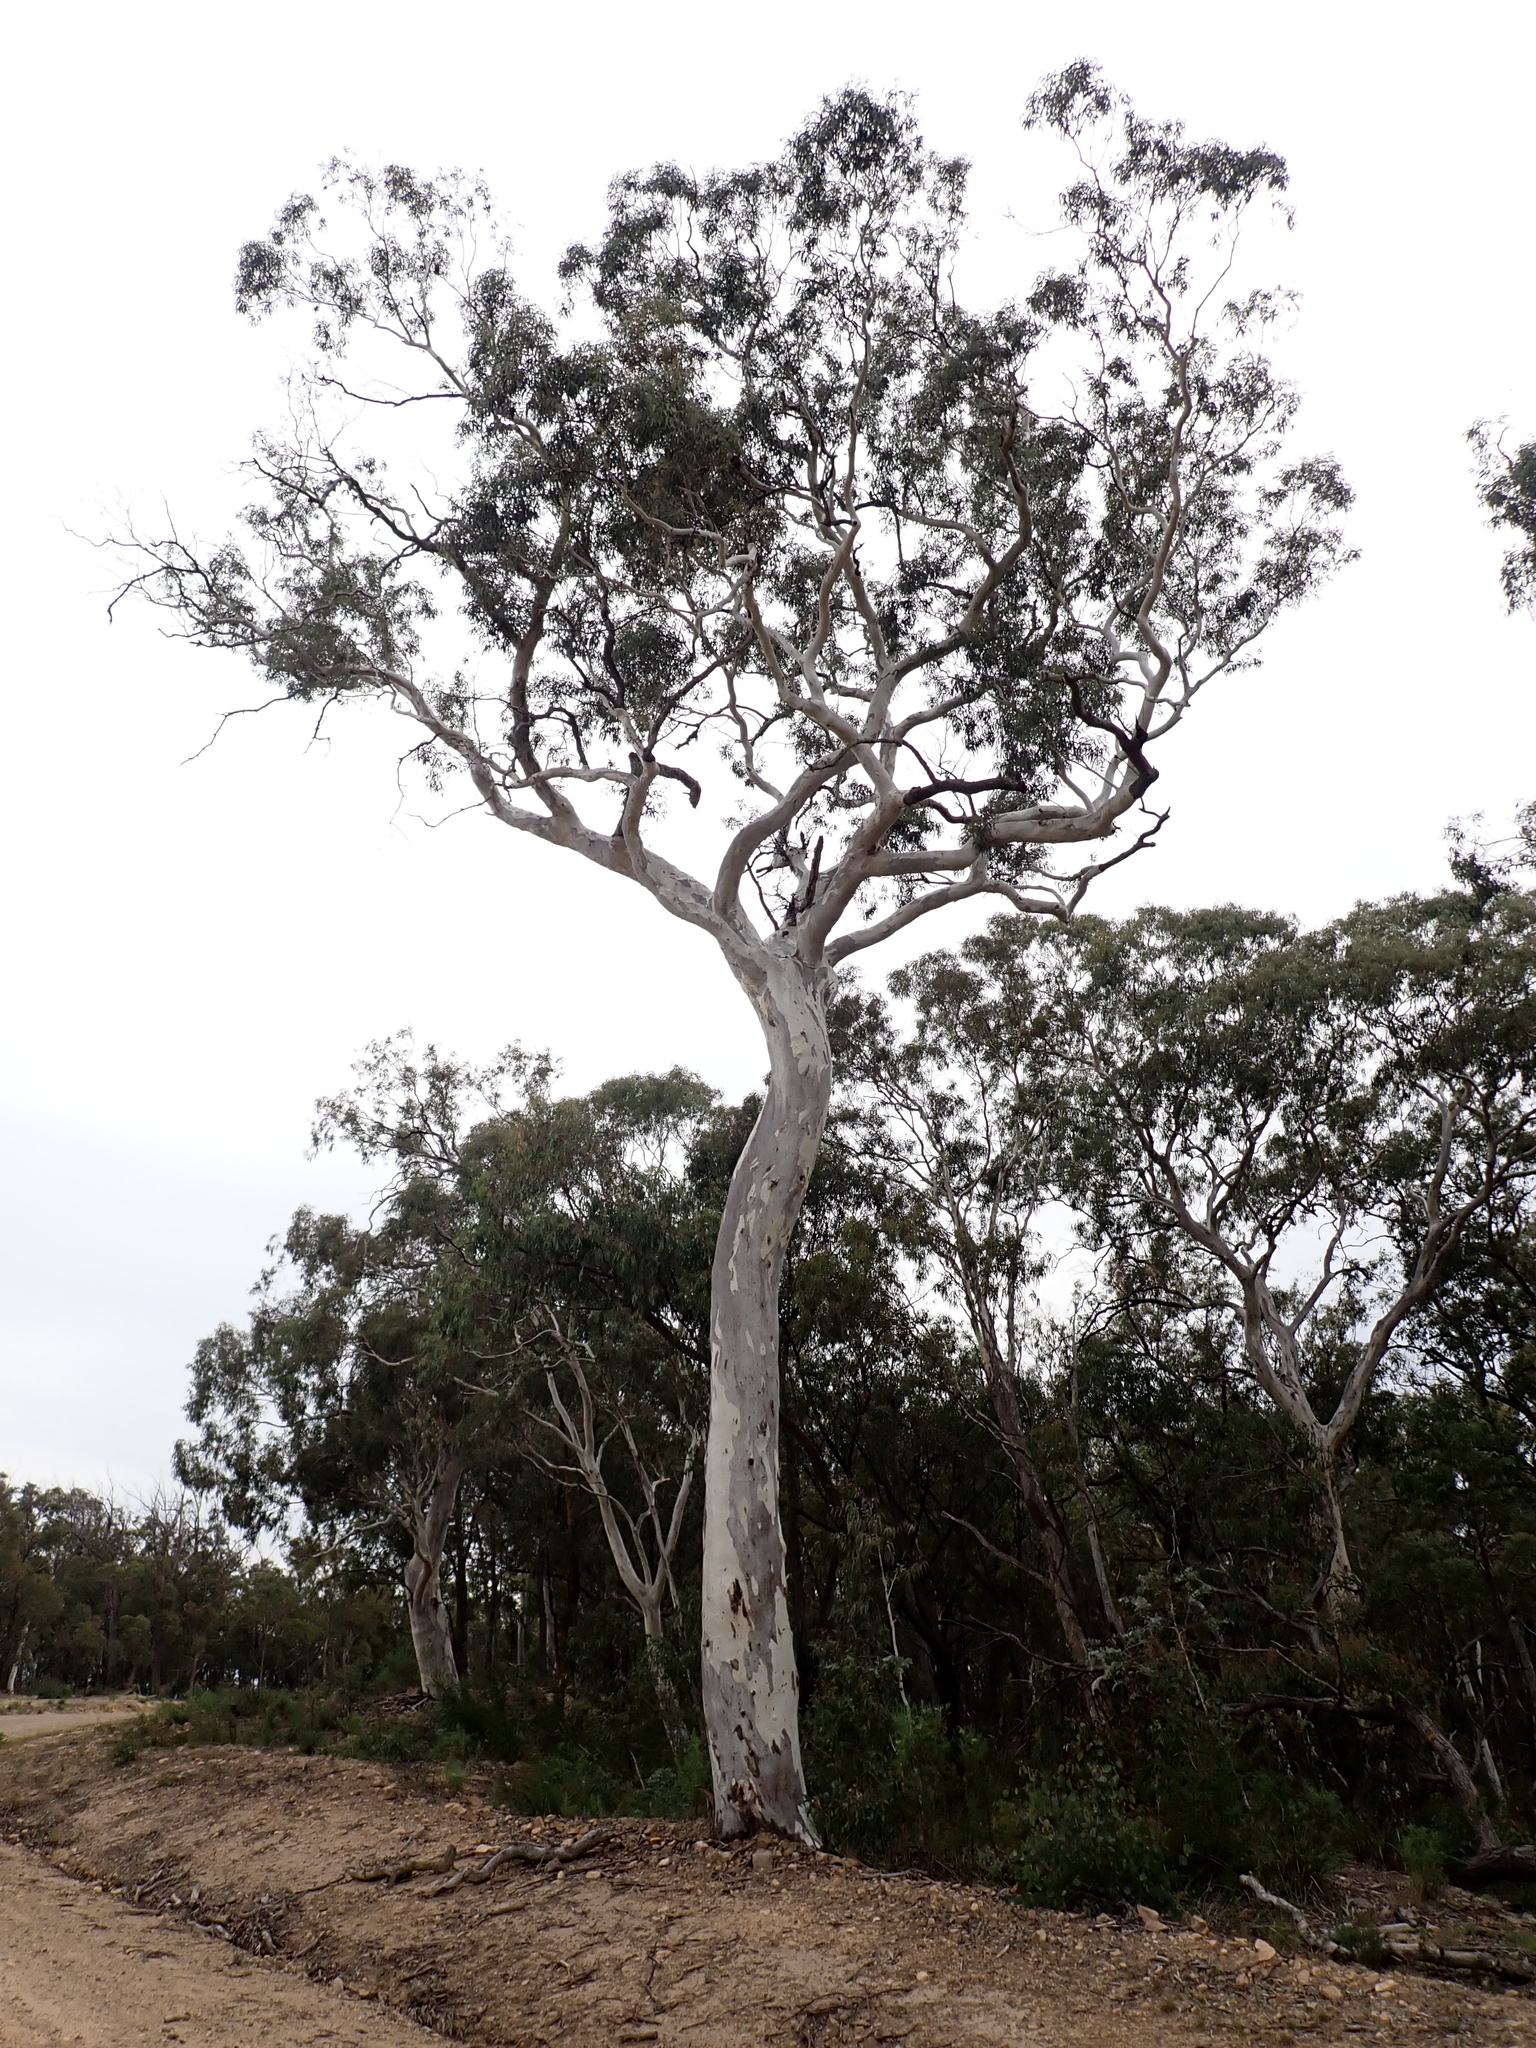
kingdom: Plantae
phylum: Tracheophyta
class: Magnoliopsida
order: Myrtales
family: Myrtaceae
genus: Eucalyptus
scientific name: Eucalyptus mannifera
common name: Manna gum
